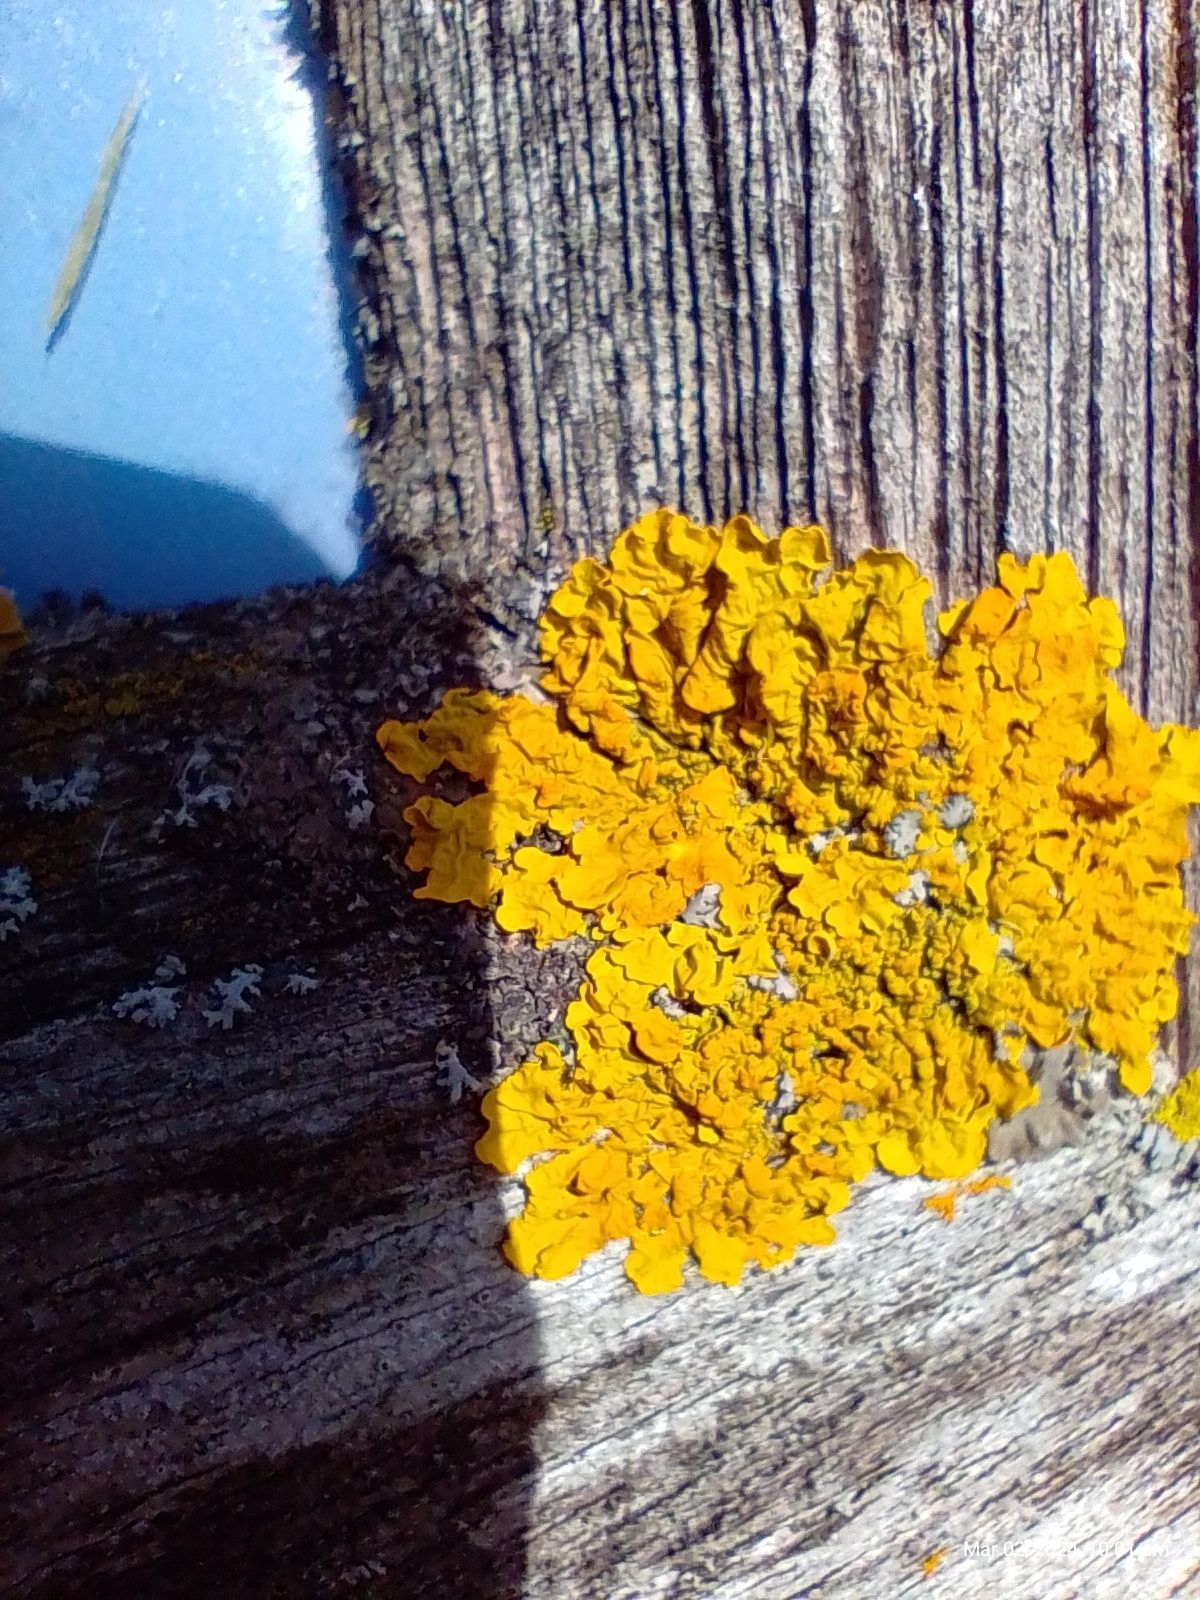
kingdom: Fungi
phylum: Ascomycota
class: Lecanoromycetes
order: Teloschistales
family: Teloschistaceae
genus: Xanthoria
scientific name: Xanthoria parietina
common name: Common orange lichen
